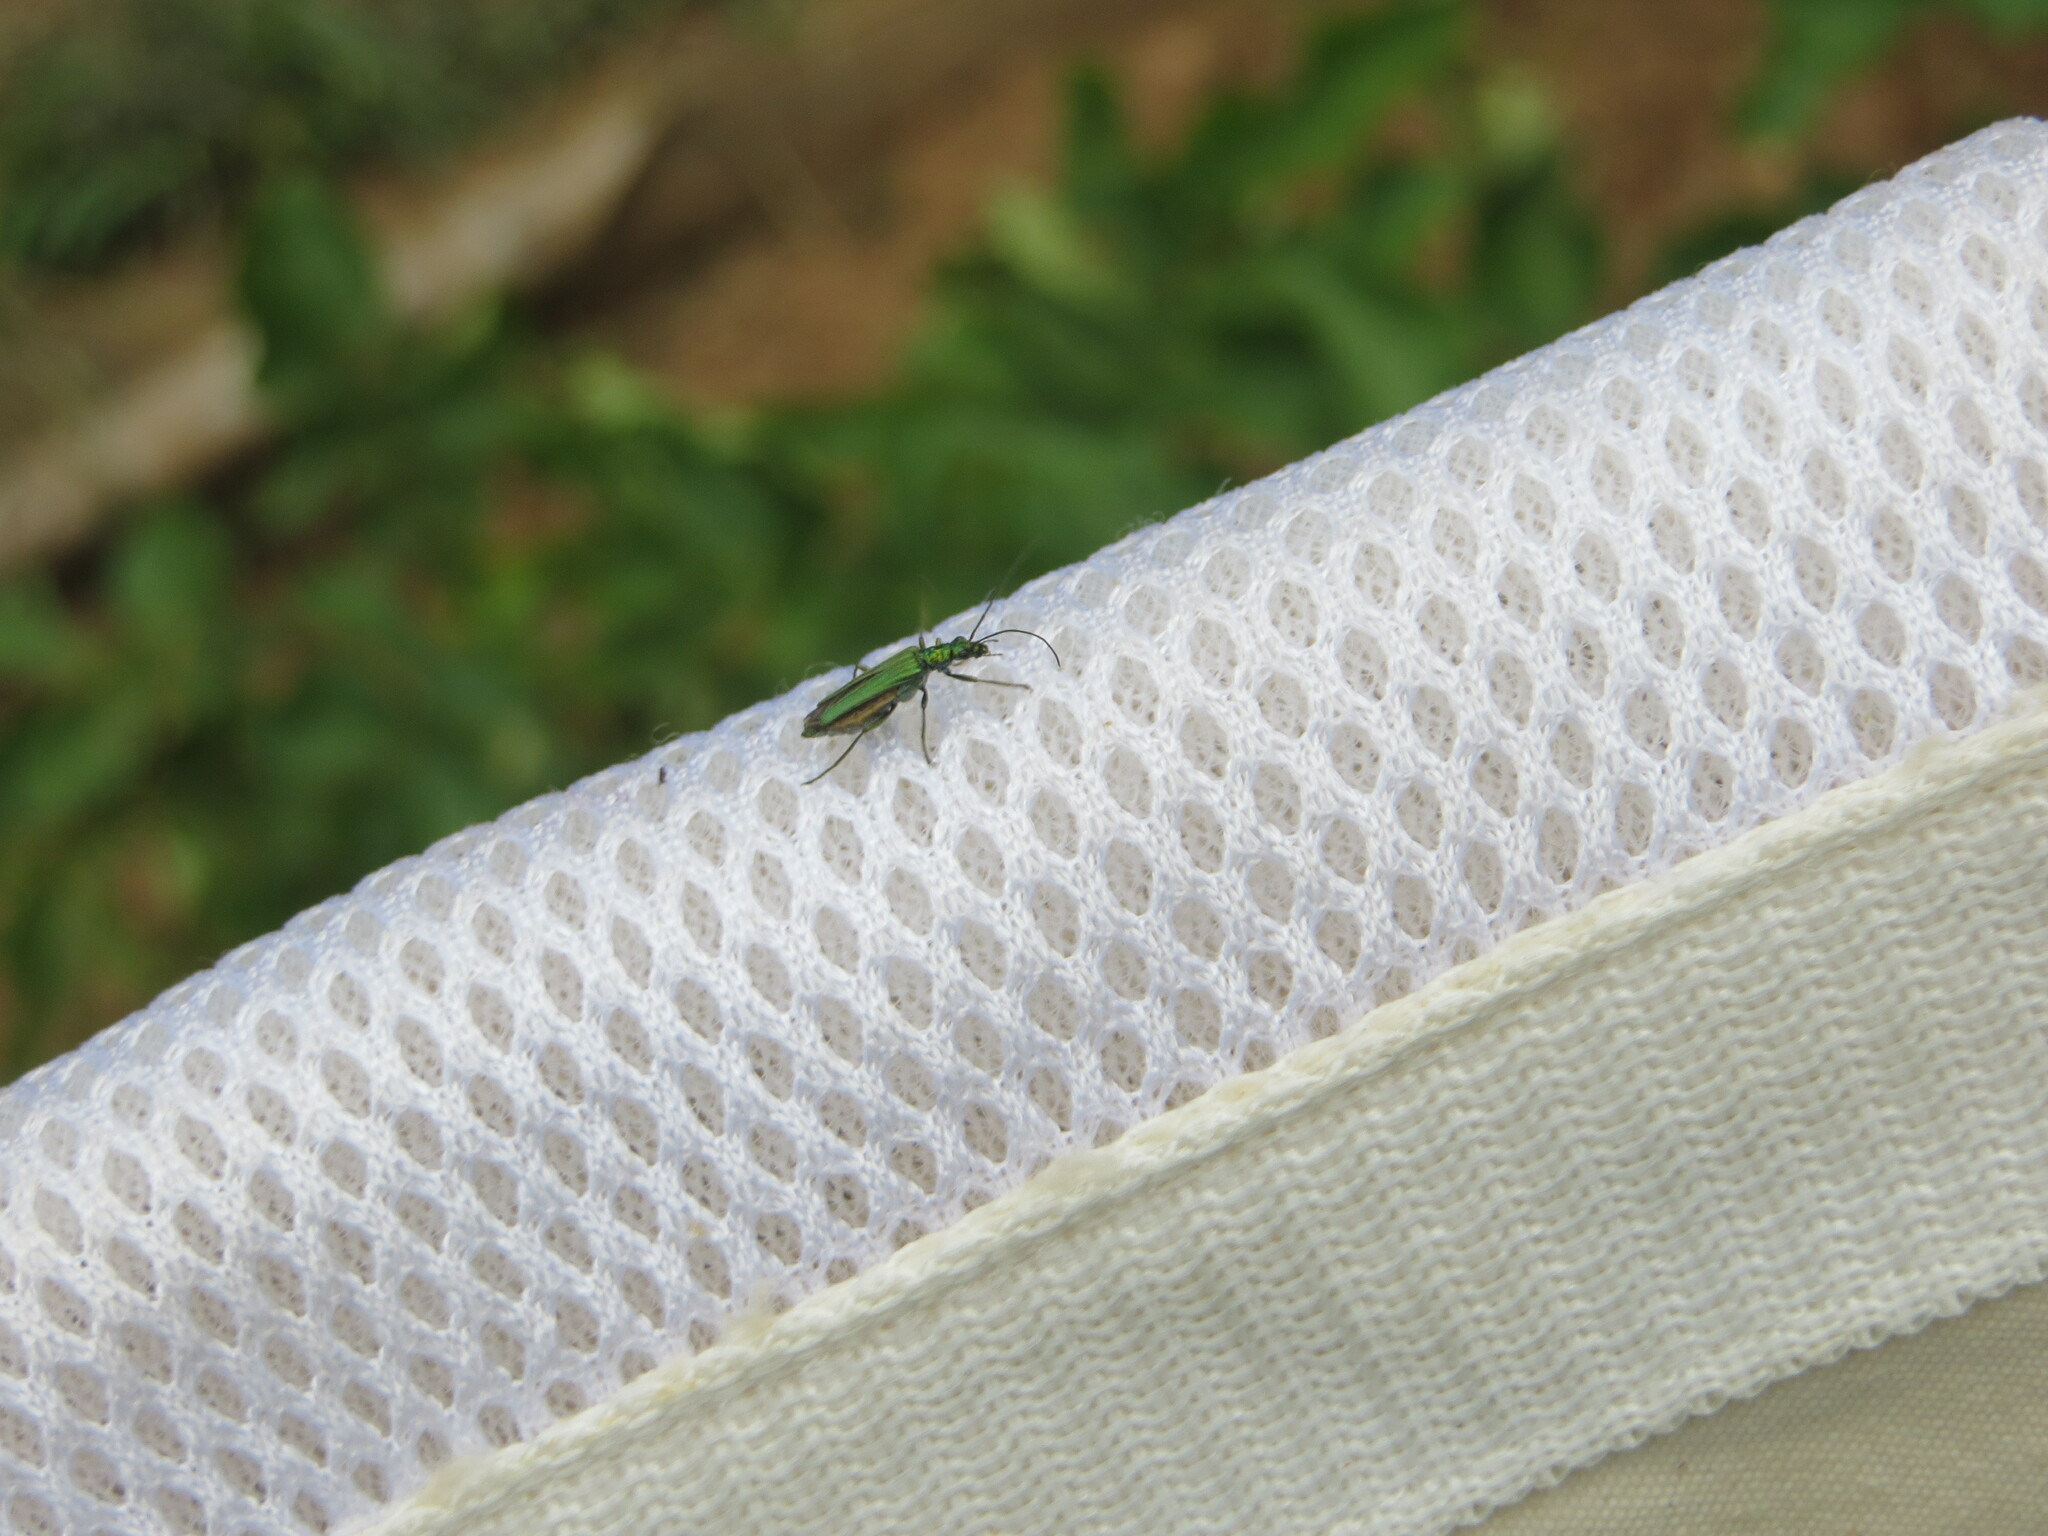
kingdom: Animalia
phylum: Arthropoda
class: Insecta
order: Coleoptera
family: Oedemeridae
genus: Oedemera
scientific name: Oedemera nobilis
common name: Swollen-thighed beetle
